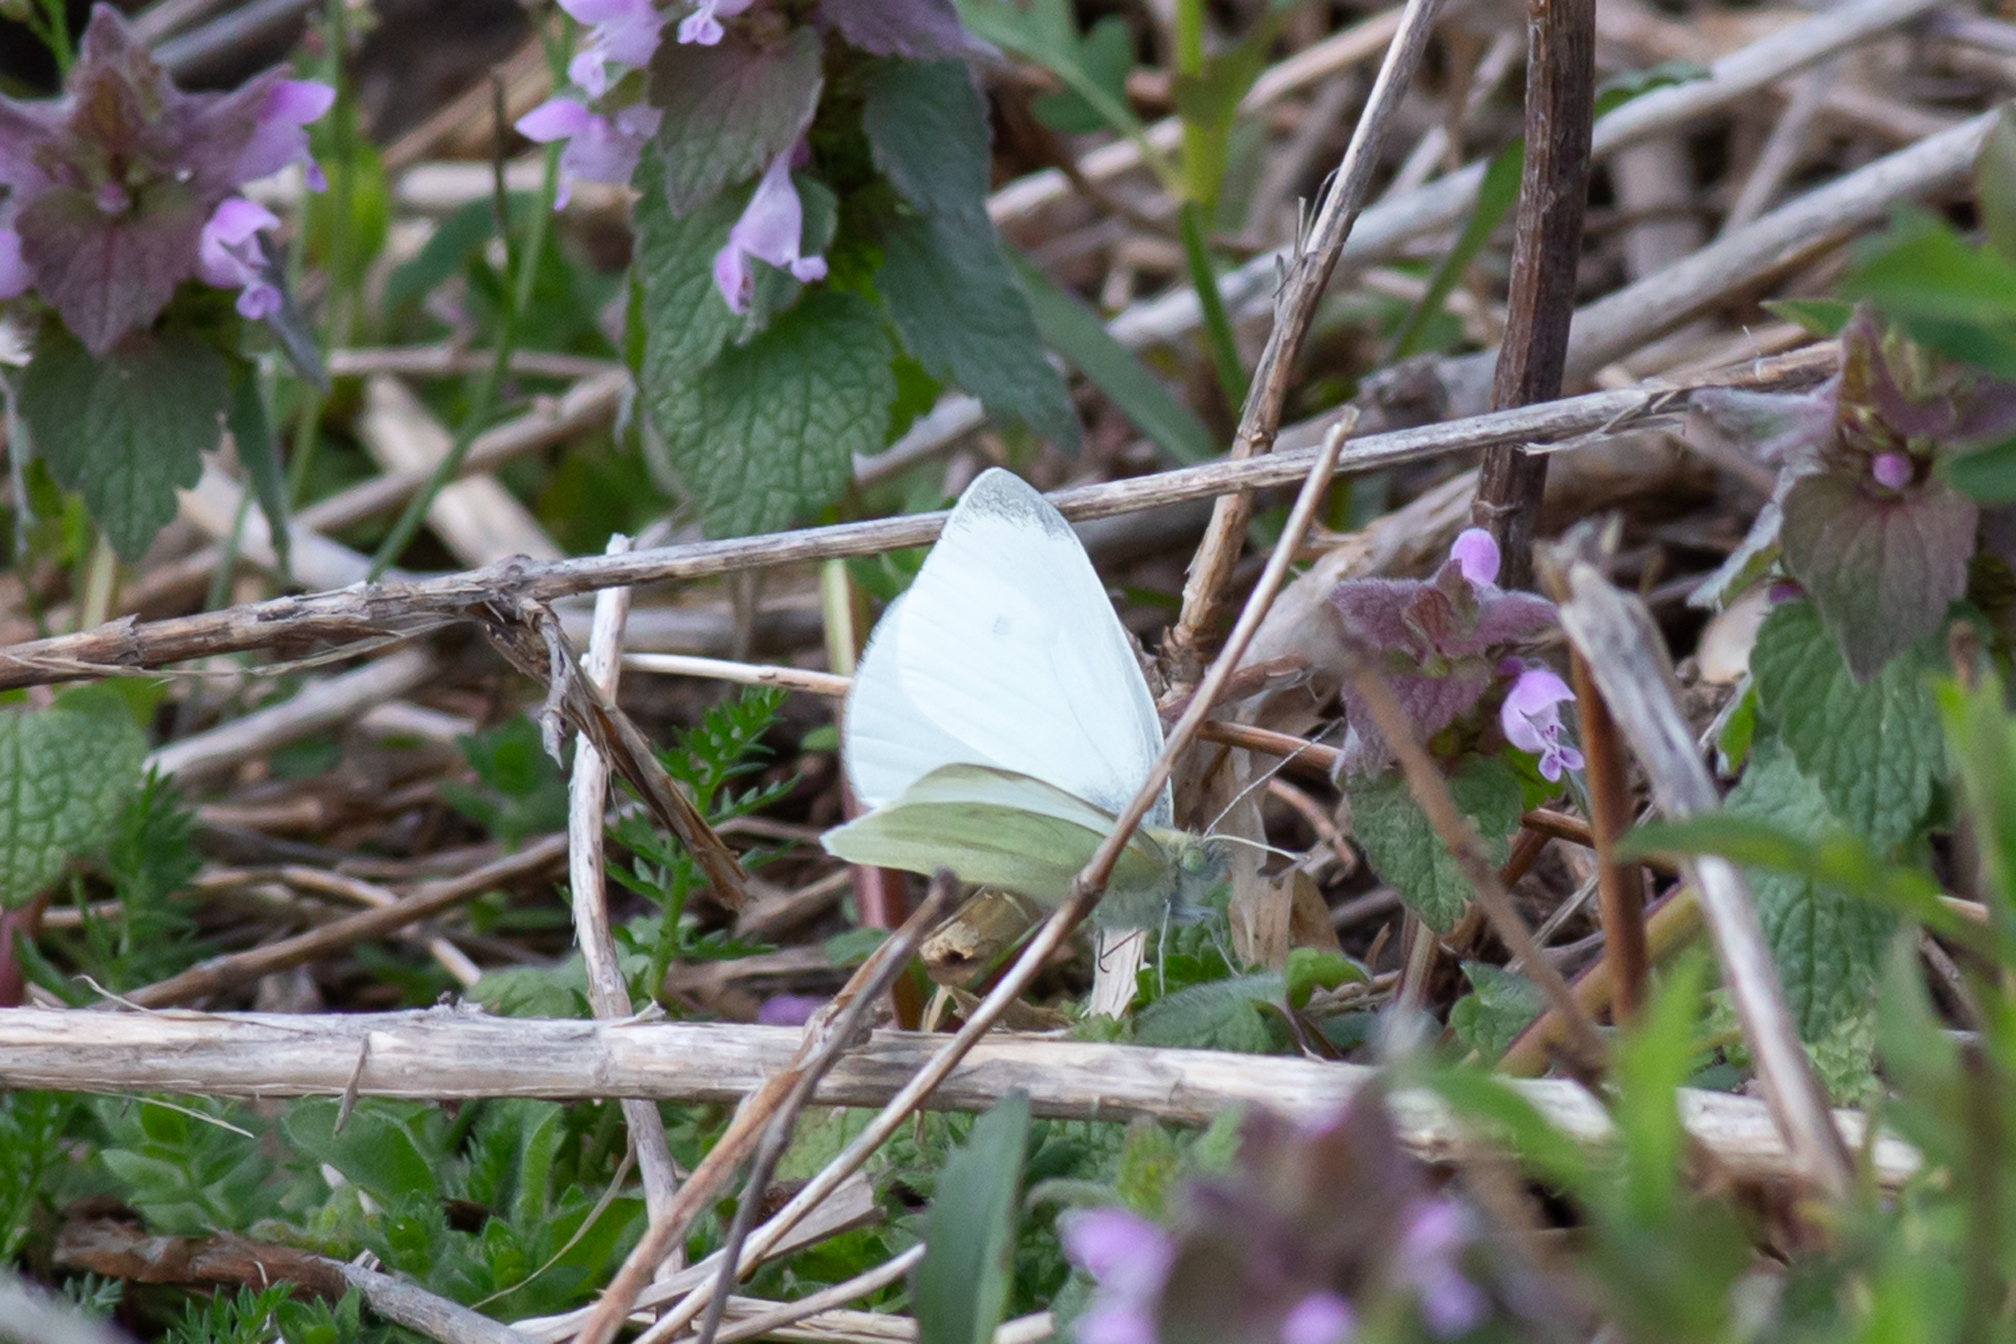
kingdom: Animalia
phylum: Arthropoda
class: Insecta
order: Lepidoptera
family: Pieridae
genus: Pieris
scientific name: Pieris rapae
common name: Small white
